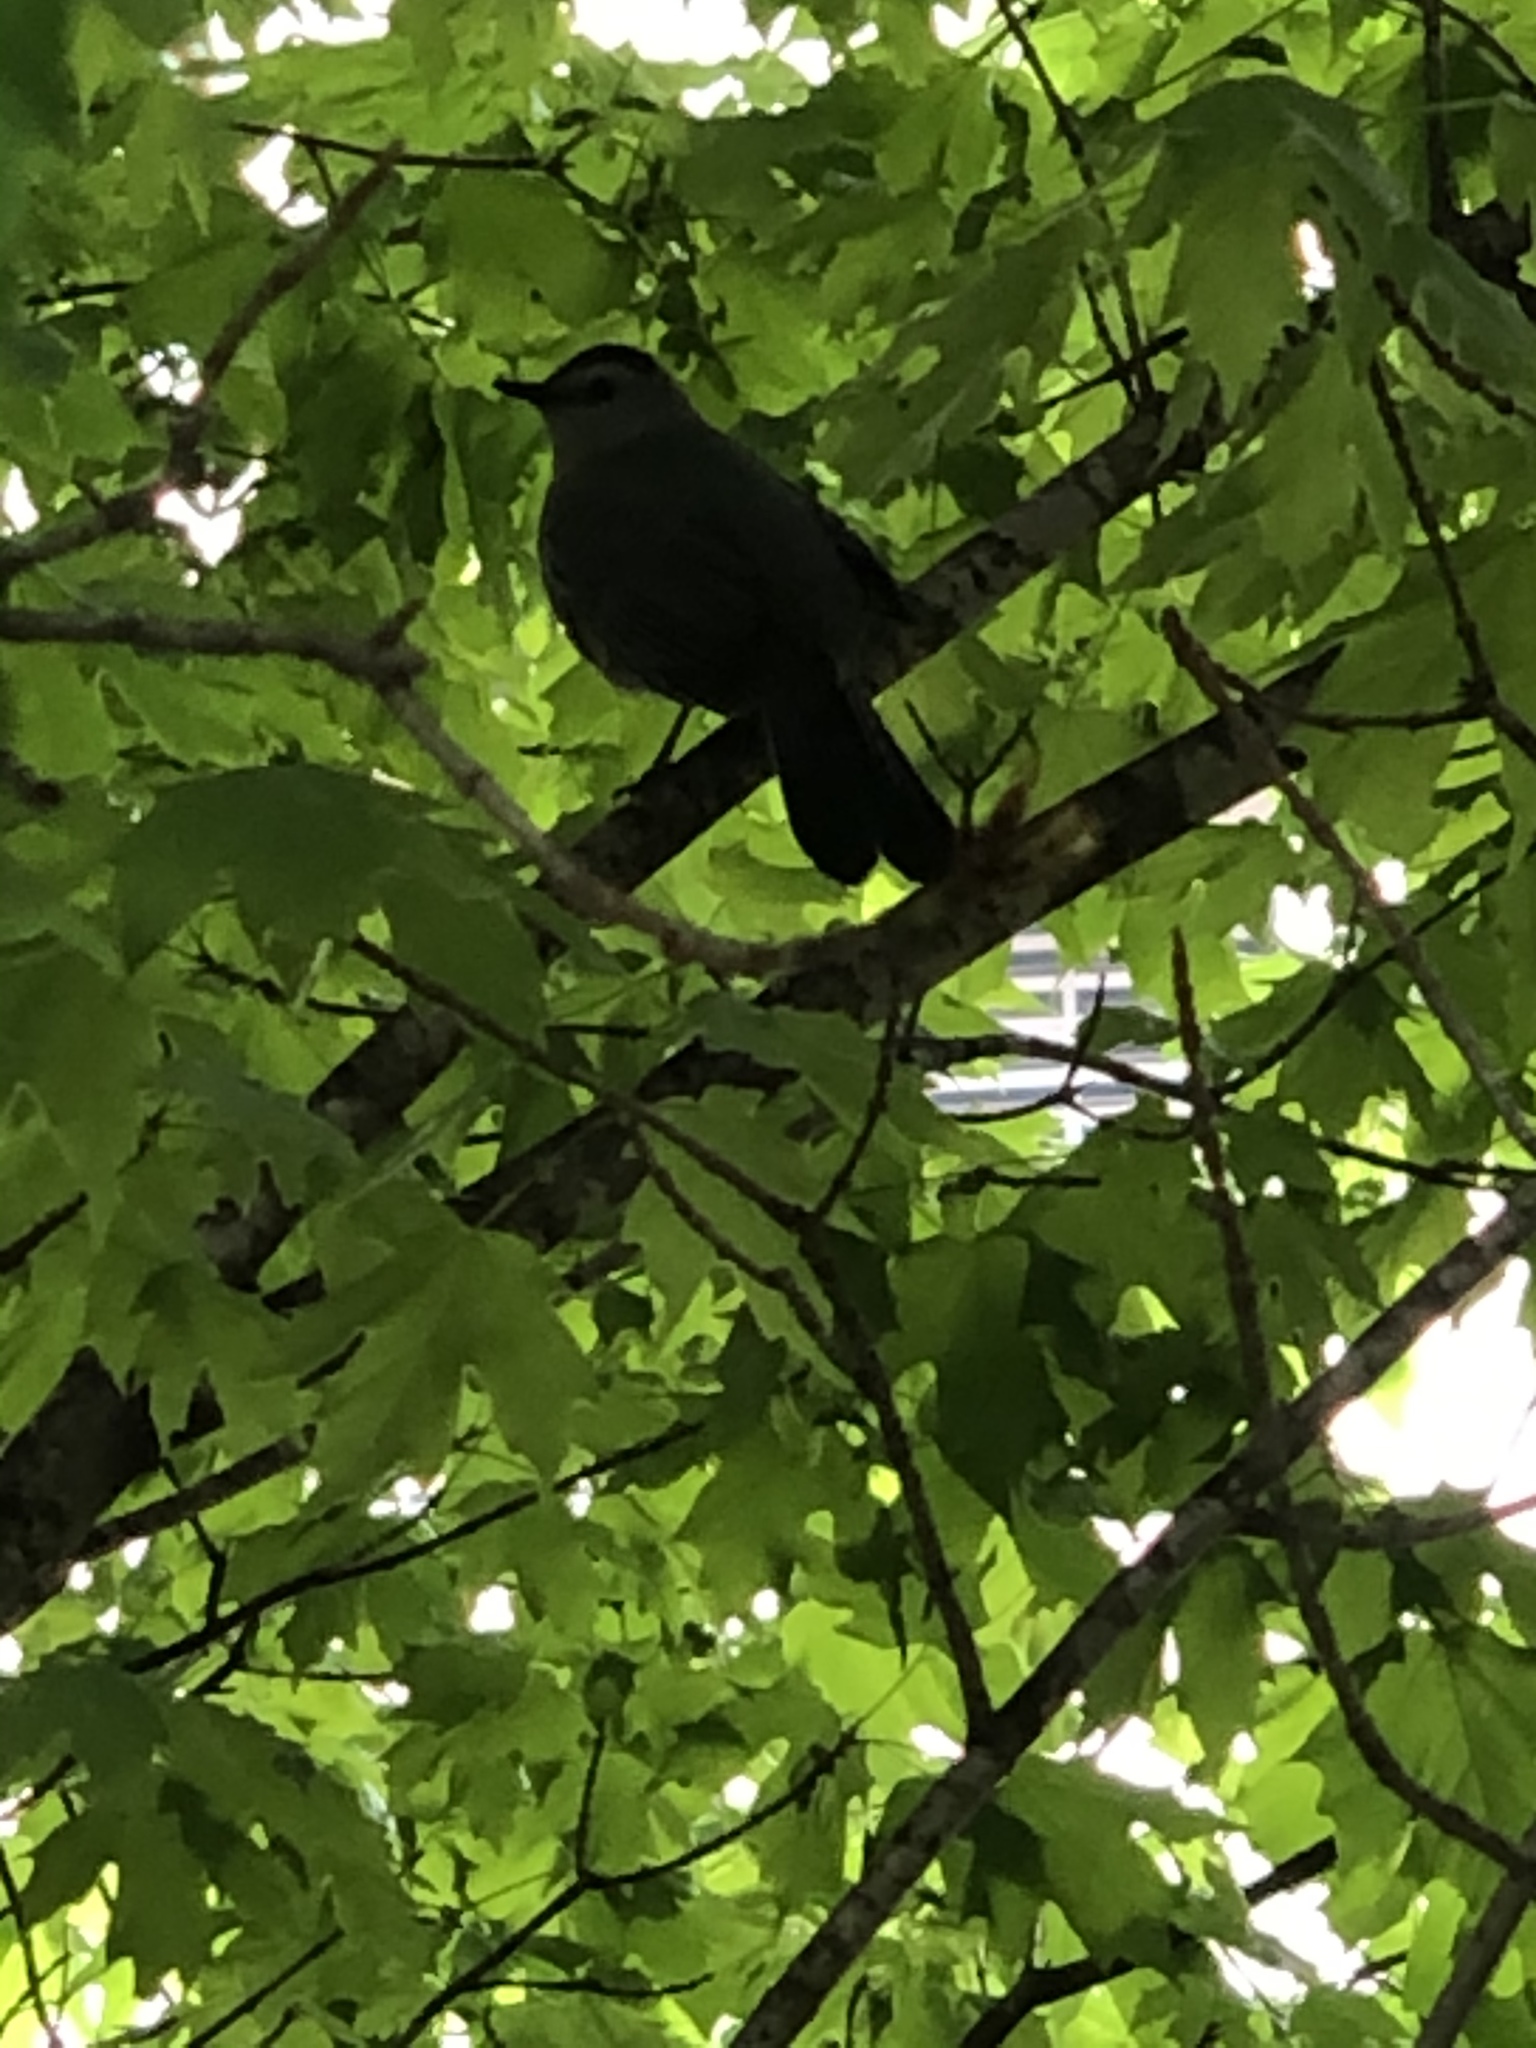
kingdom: Animalia
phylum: Chordata
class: Aves
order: Passeriformes
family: Mimidae
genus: Dumetella
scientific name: Dumetella carolinensis
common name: Gray catbird
